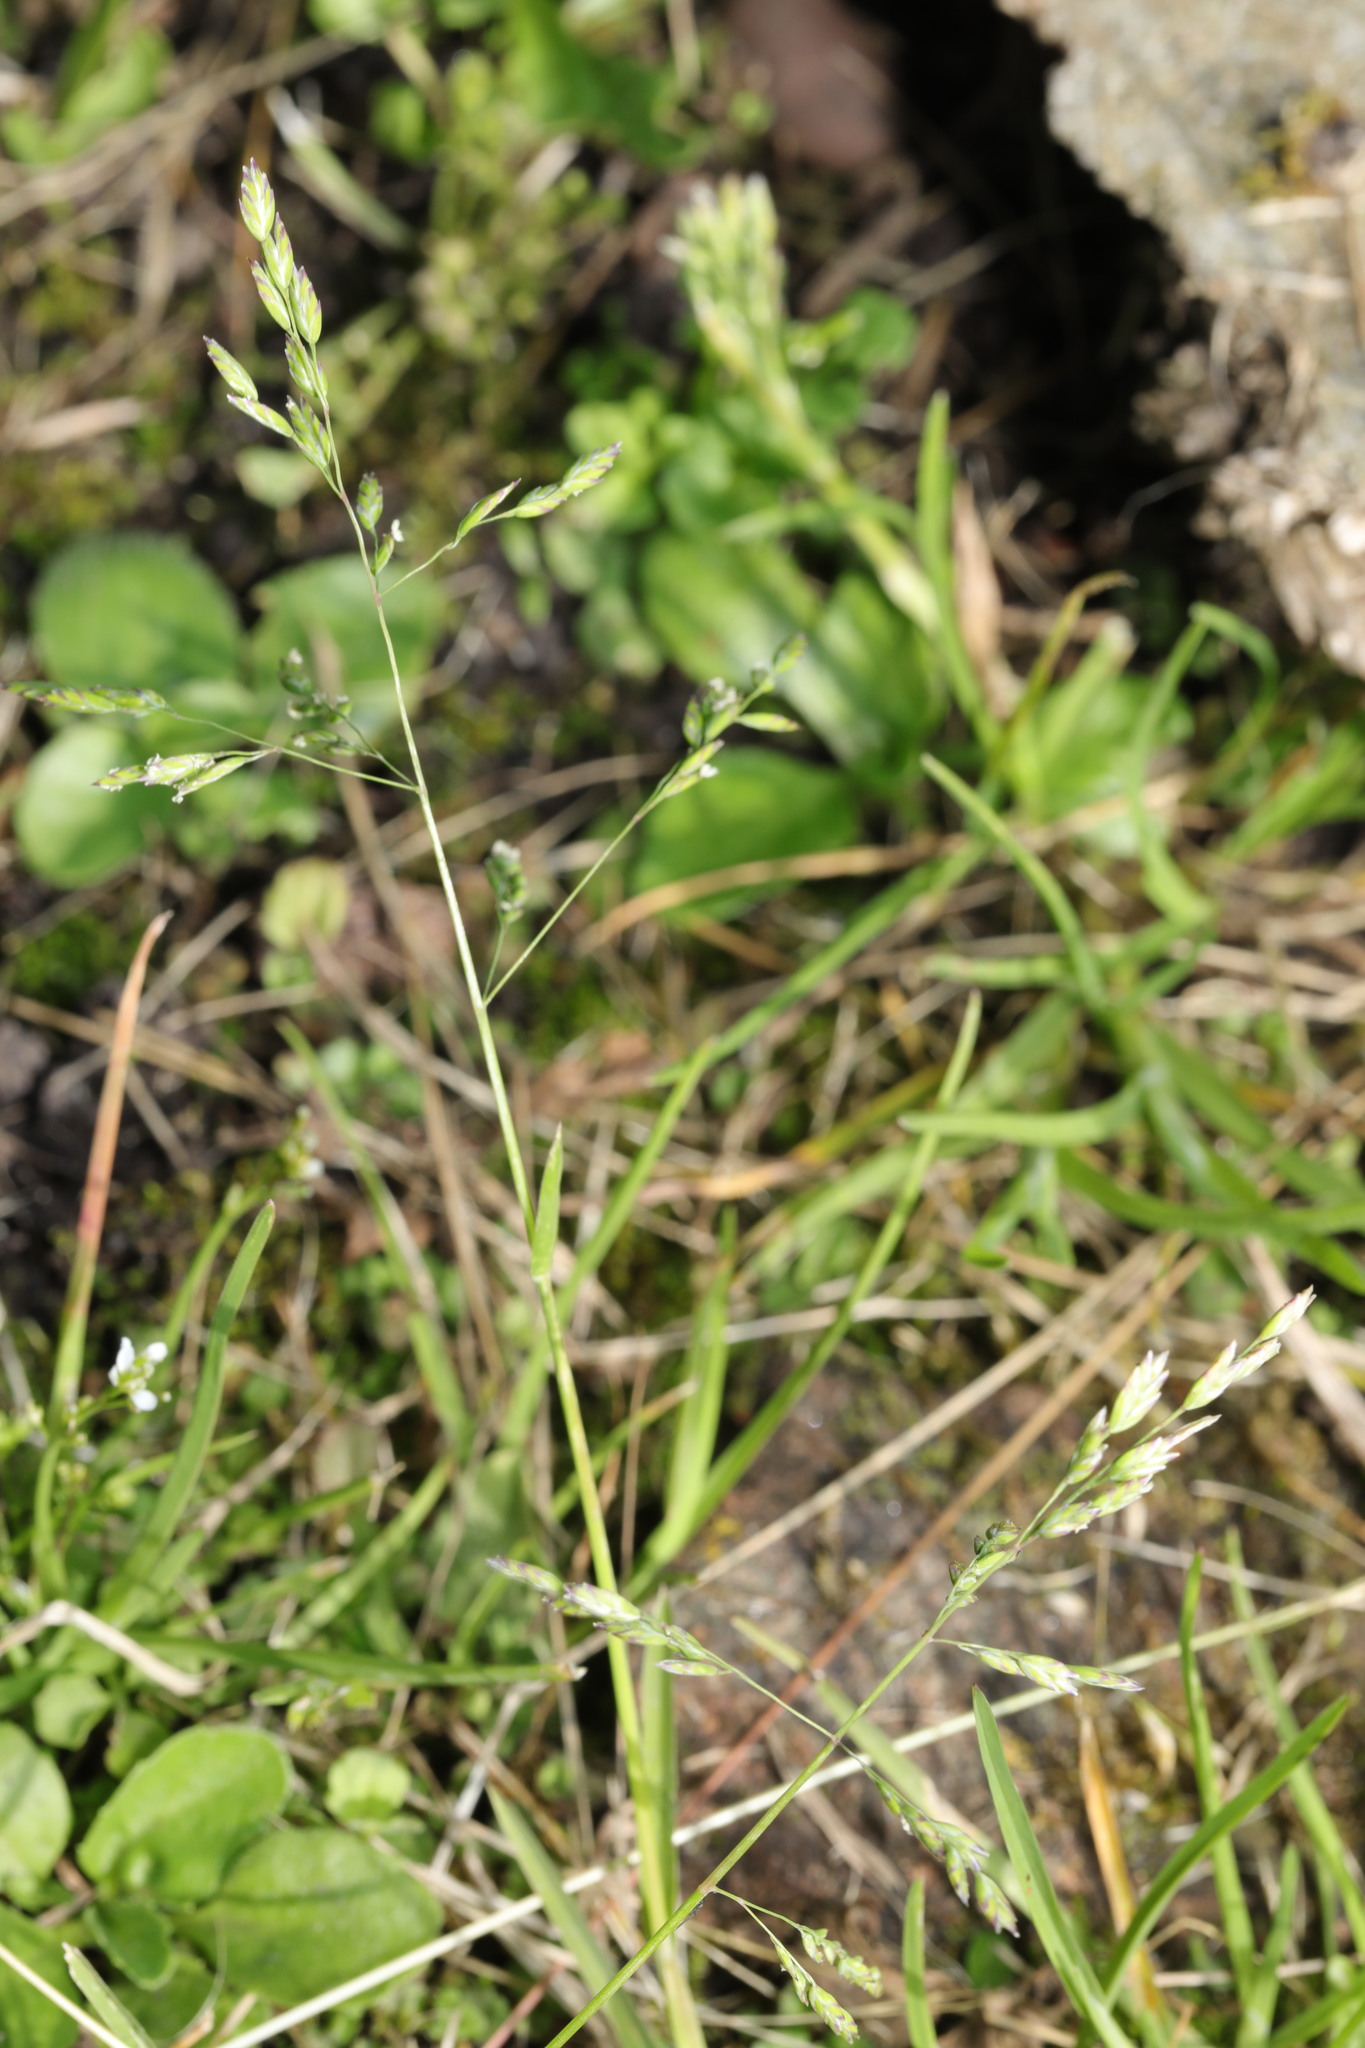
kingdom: Plantae
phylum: Tracheophyta
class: Liliopsida
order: Poales
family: Poaceae
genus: Poa
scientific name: Poa annua
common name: Annual bluegrass
